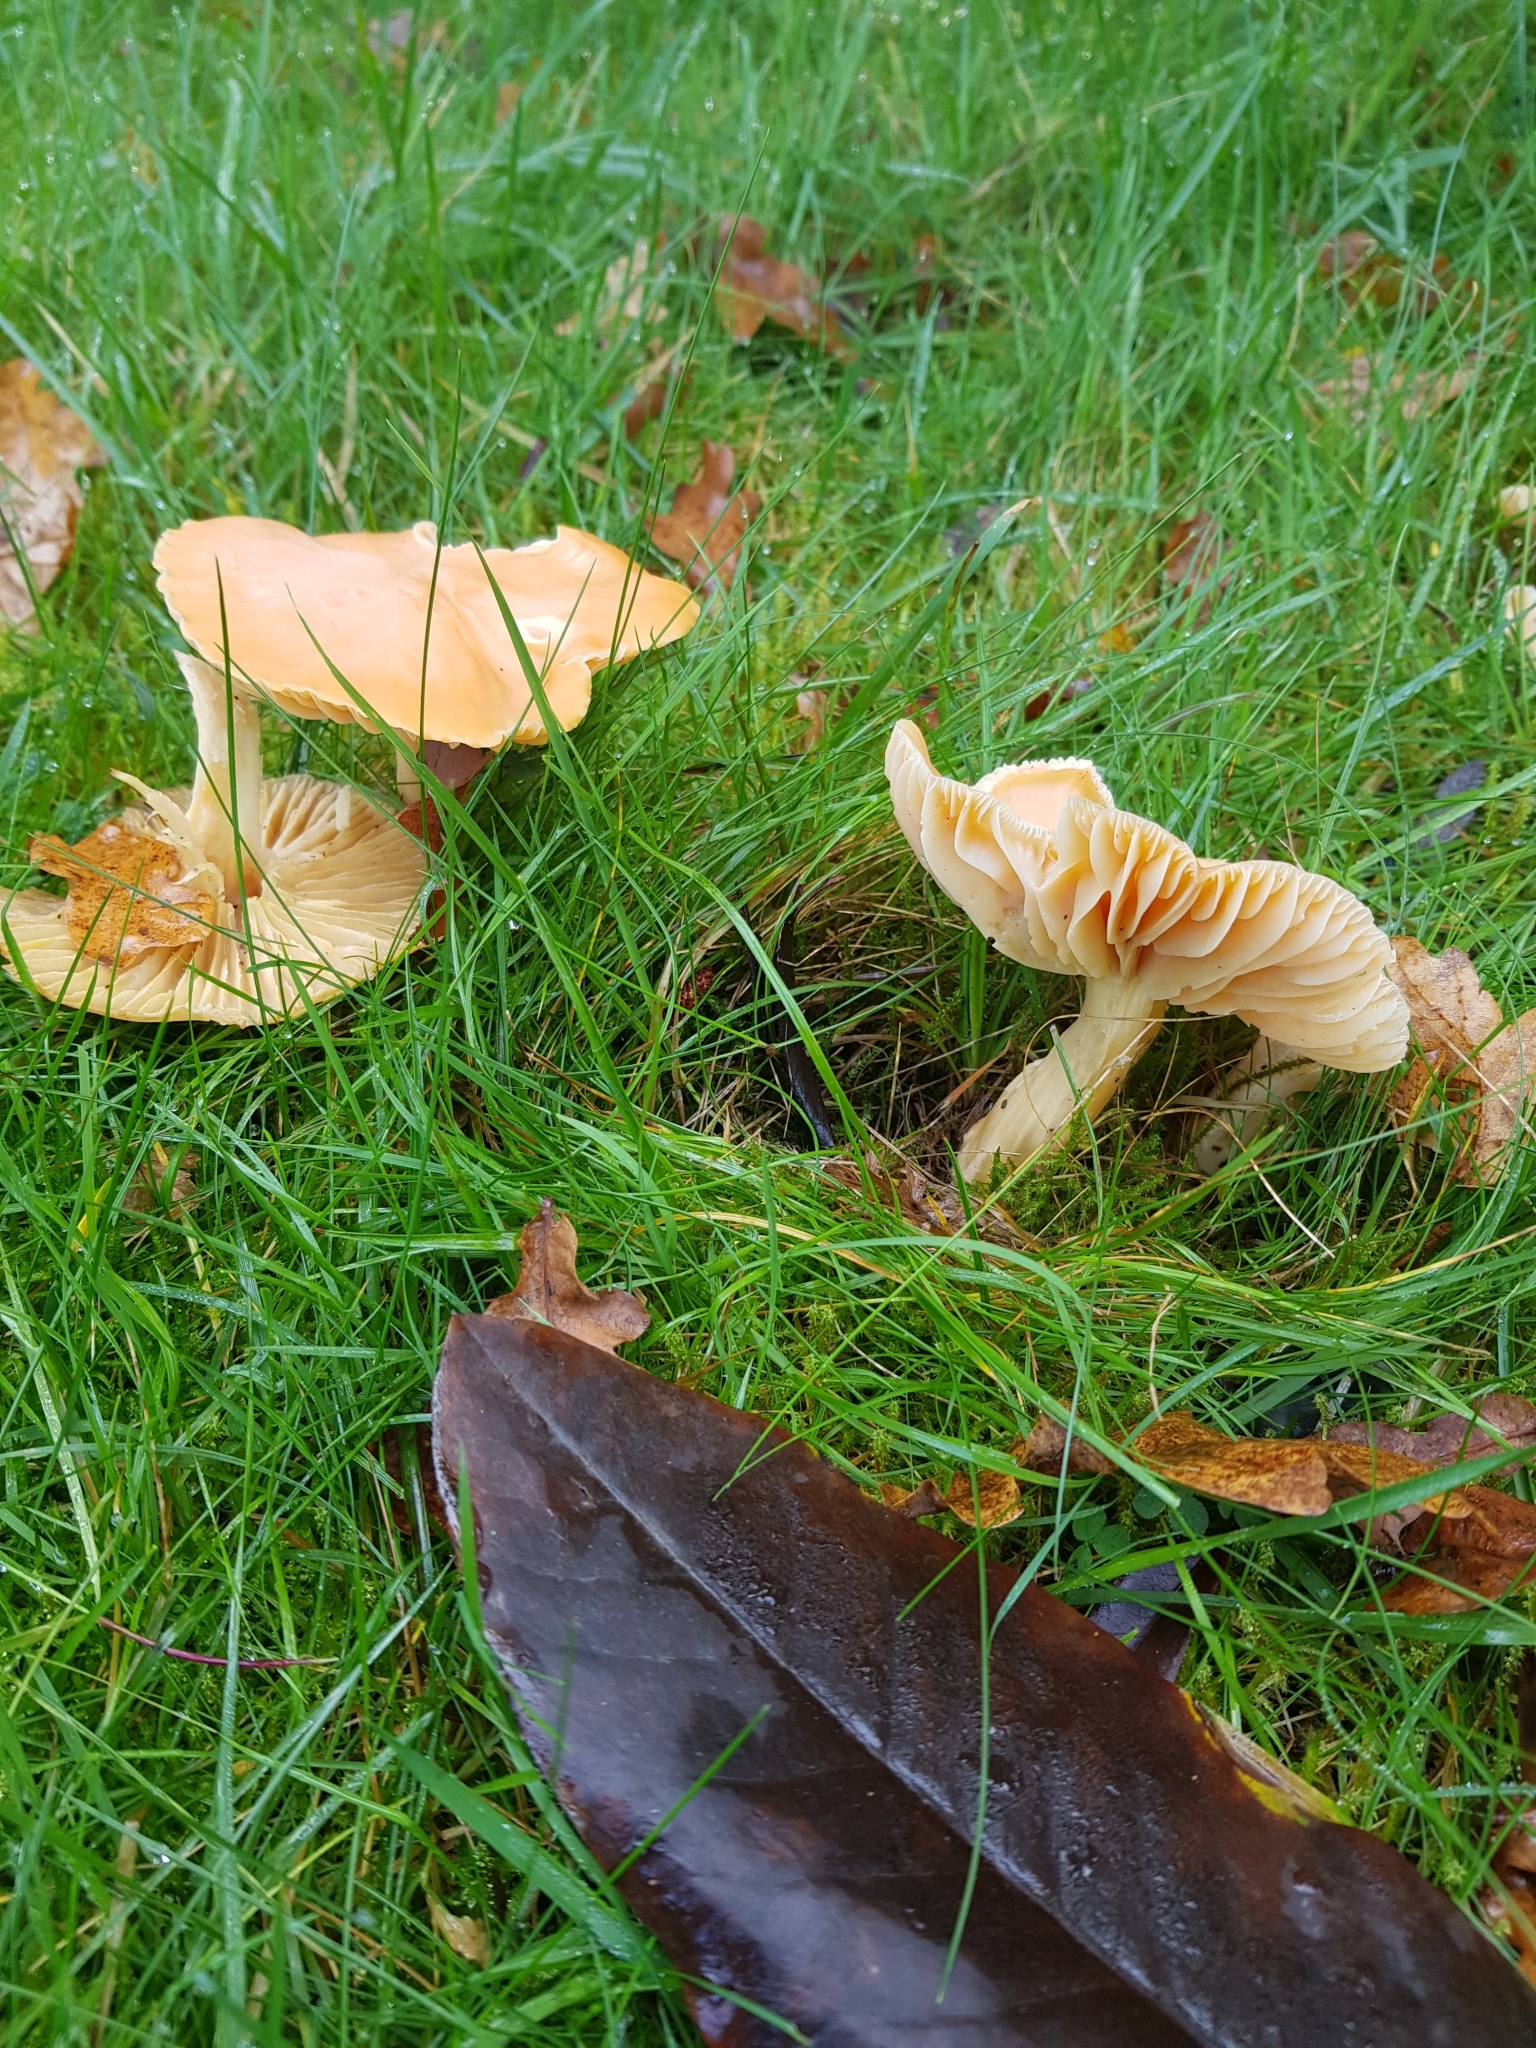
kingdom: Fungi
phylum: Basidiomycota
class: Agaricomycetes
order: Agaricales
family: Hygrophoraceae
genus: Cuphophyllus
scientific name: Cuphophyllus pratensis
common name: Meadow waxcap
